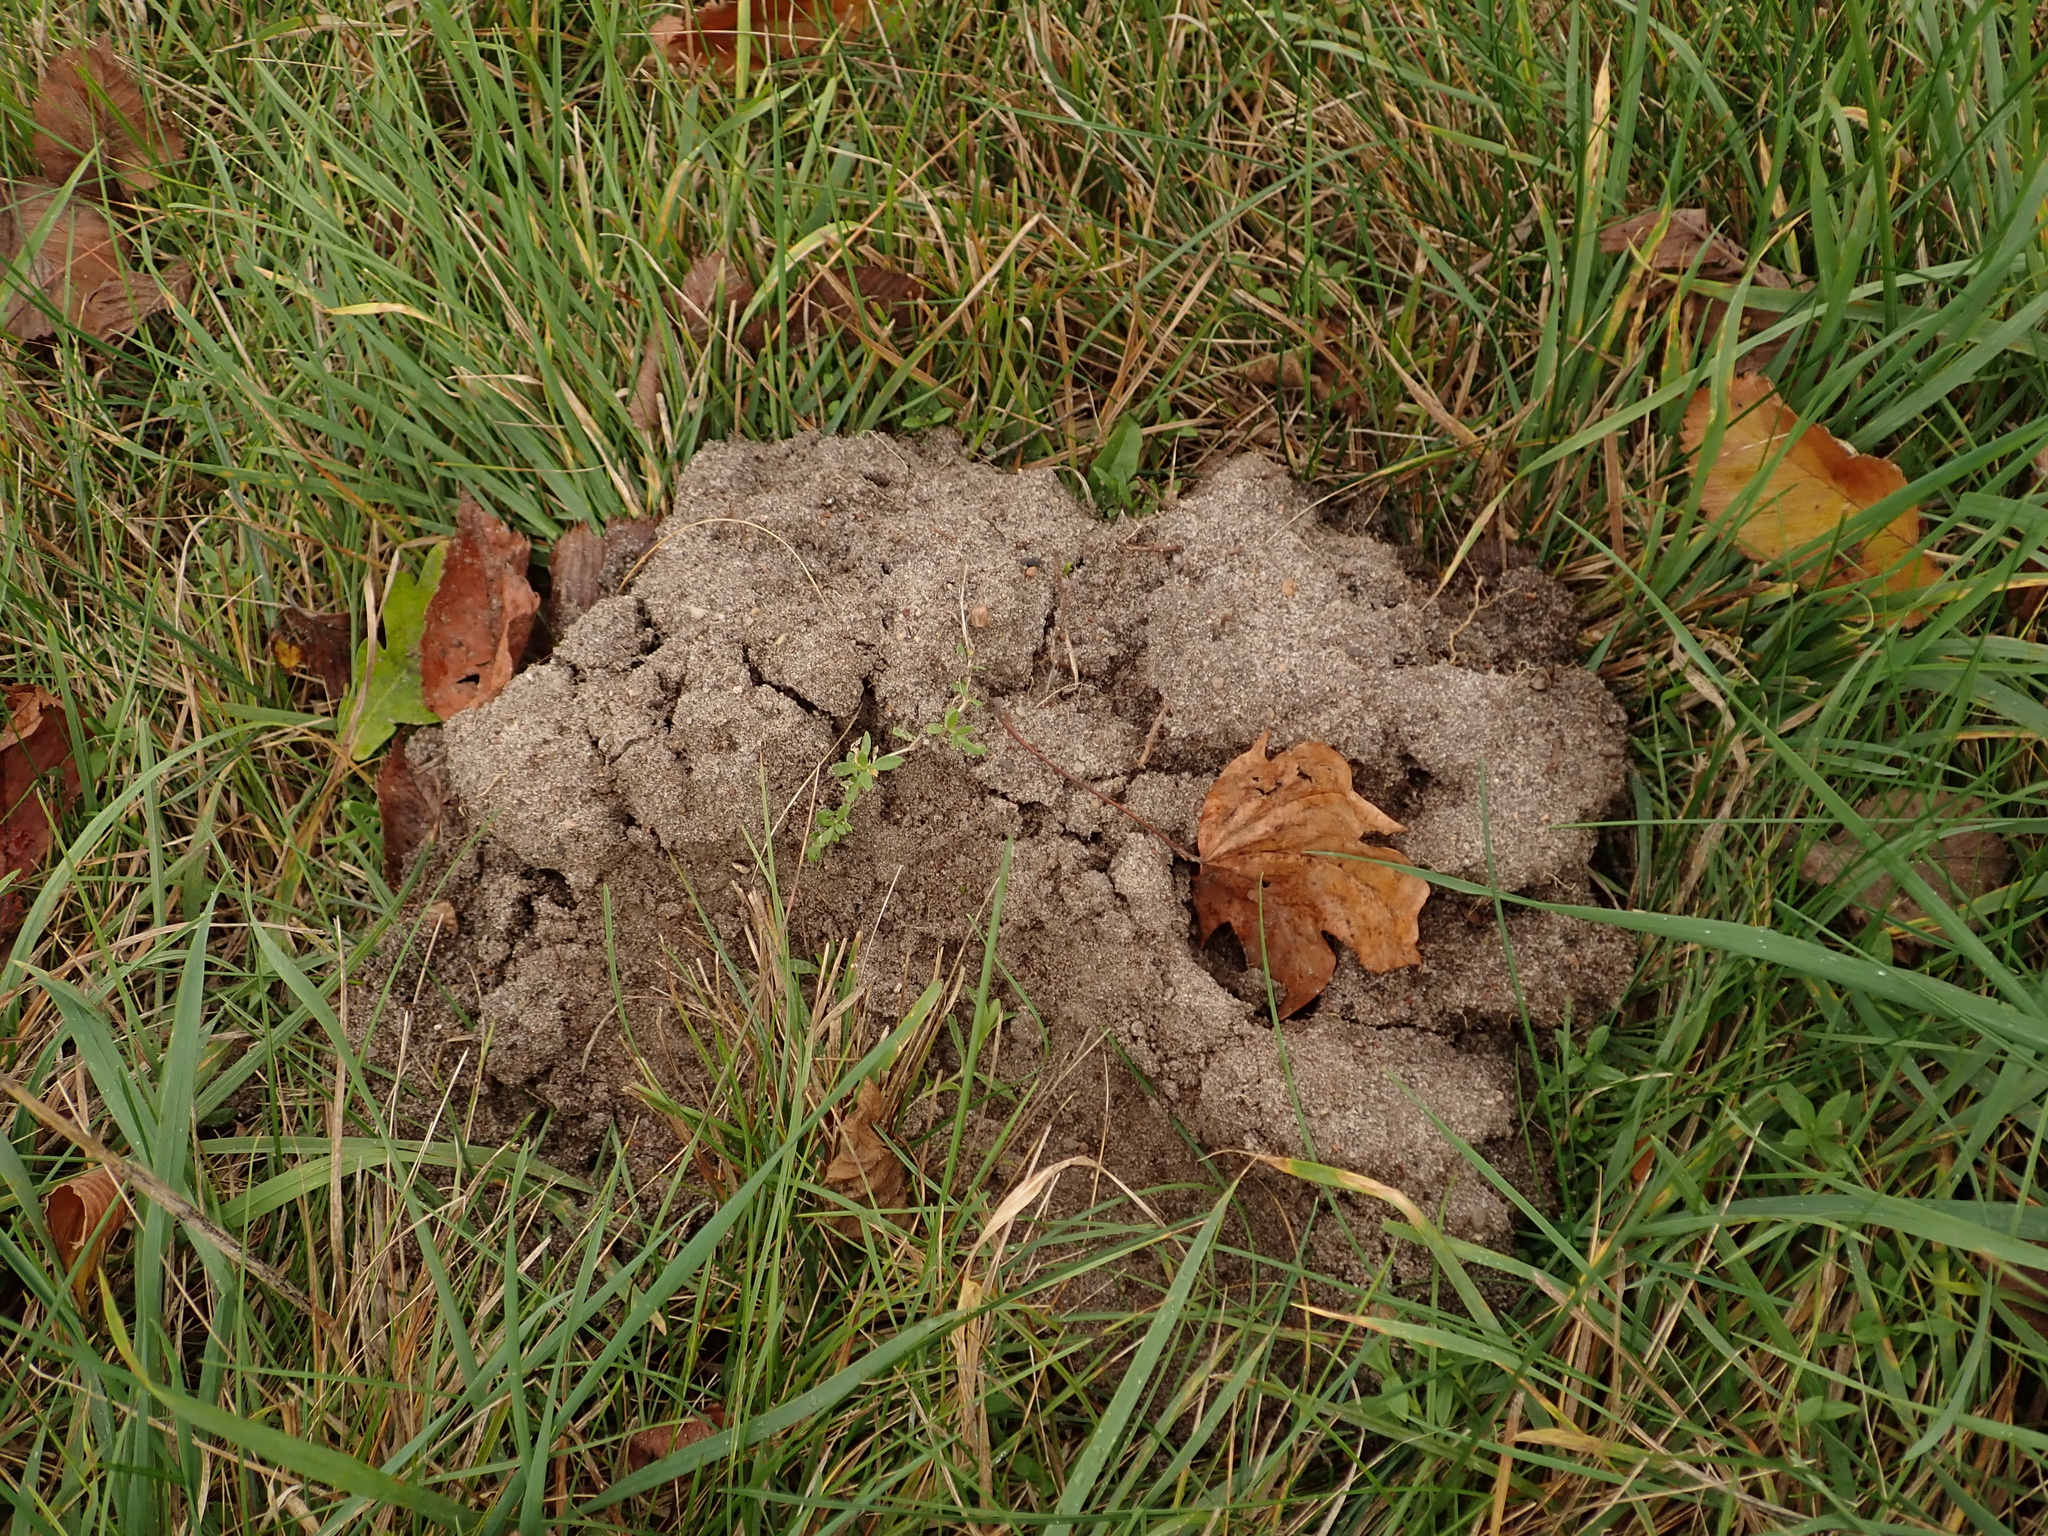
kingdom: Animalia
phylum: Chordata
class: Mammalia
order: Soricomorpha
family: Talpidae
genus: Talpa
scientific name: Talpa europaea
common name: European mole
